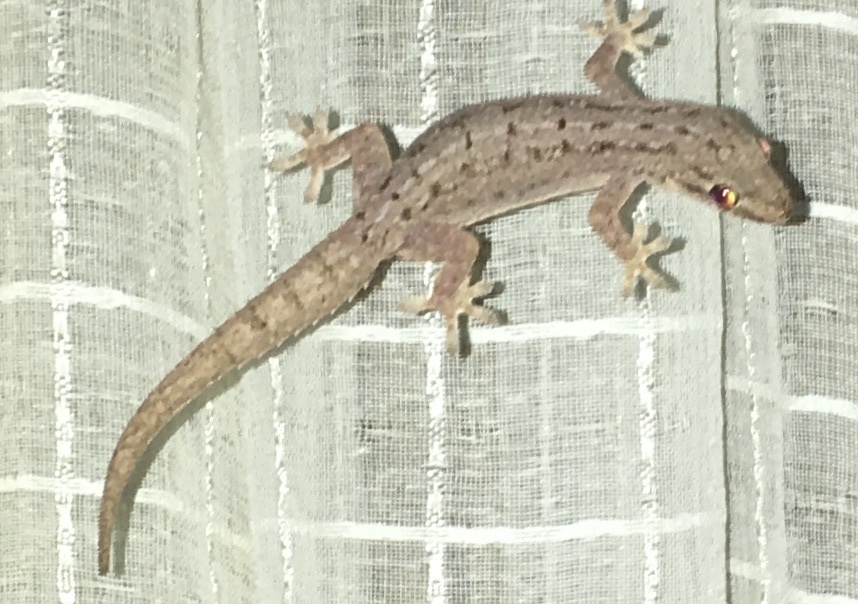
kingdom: Animalia
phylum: Chordata
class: Squamata
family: Gekkonidae
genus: Hemidactylus
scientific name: Hemidactylus frenatus
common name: Common house gecko
